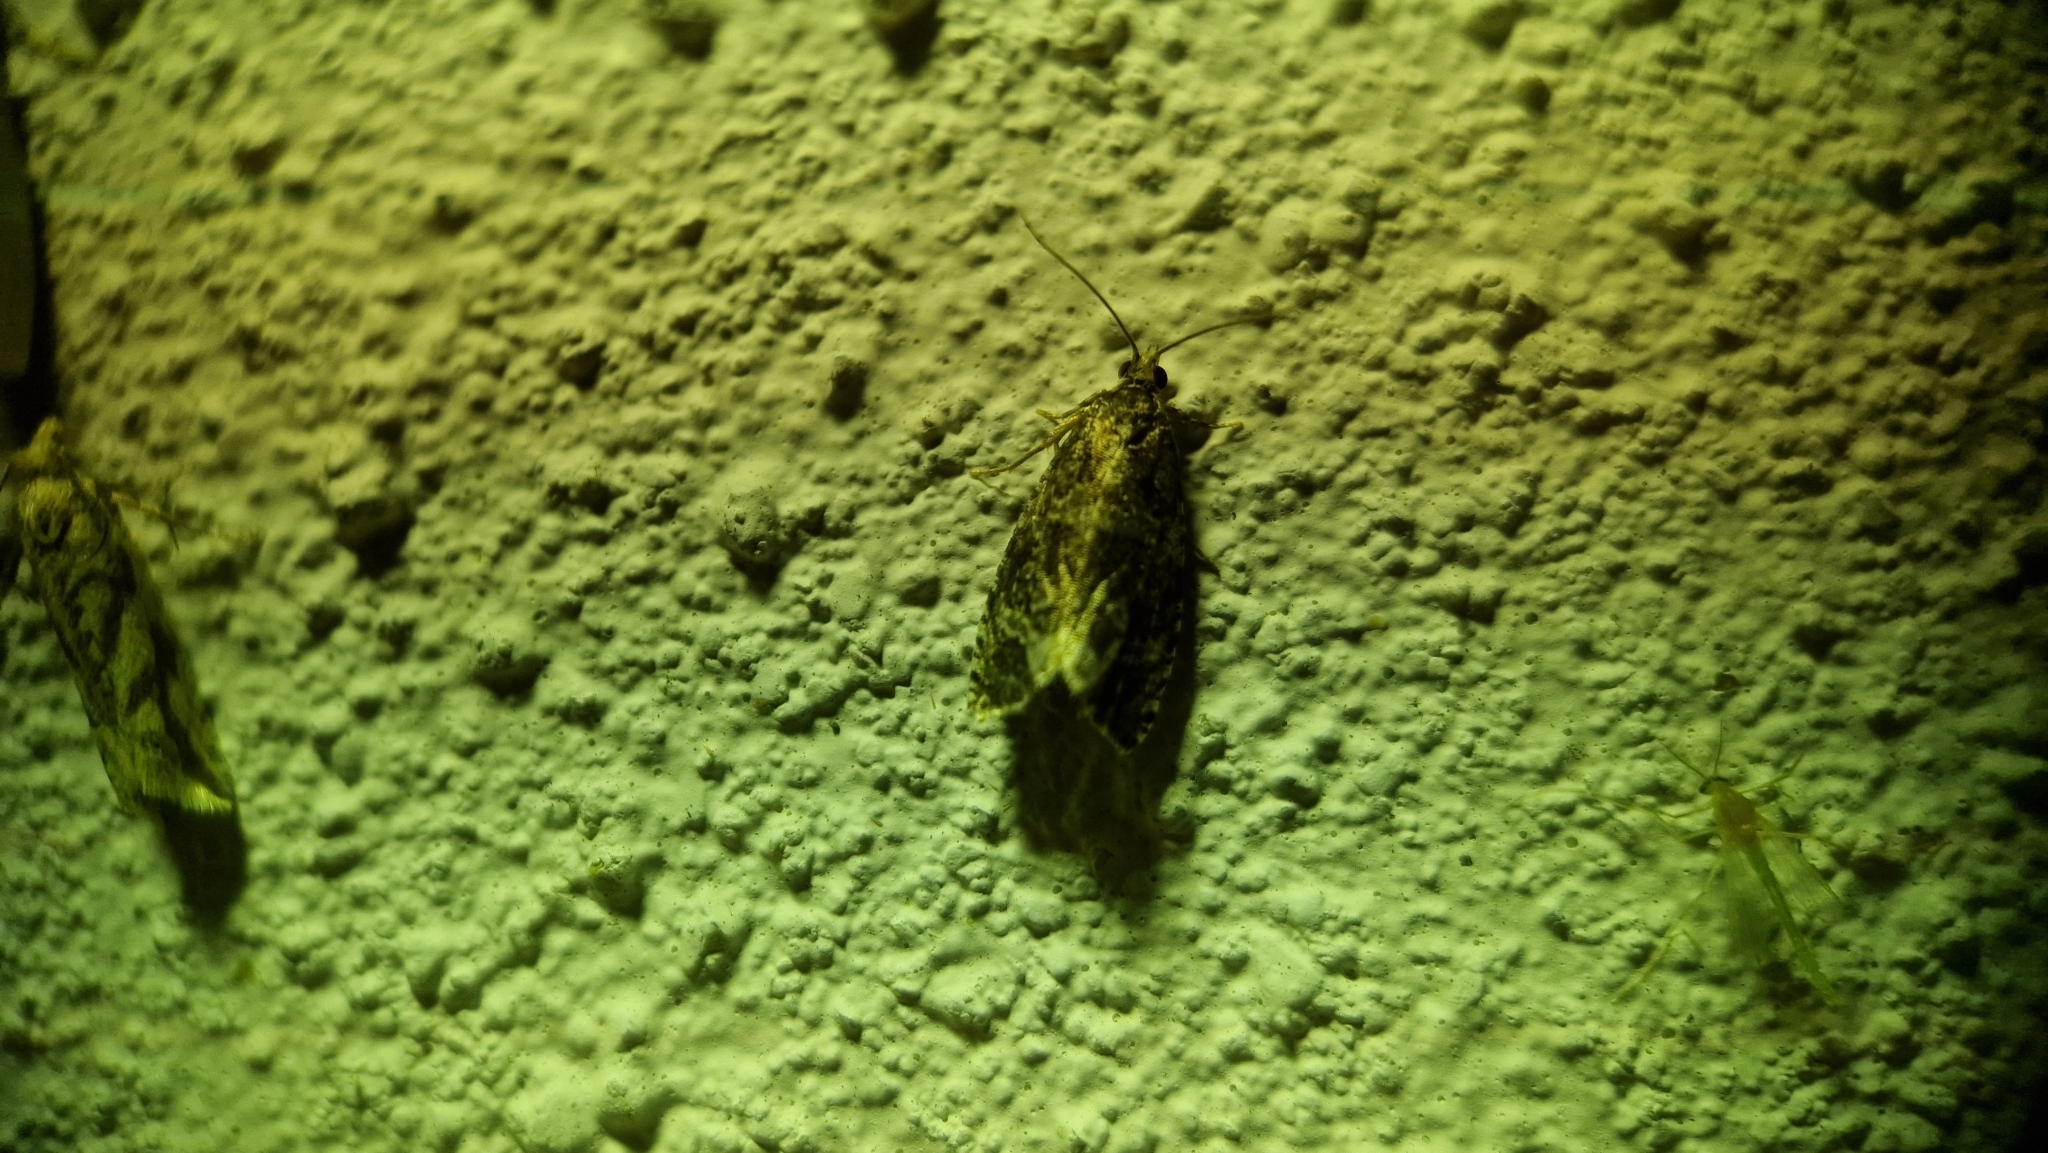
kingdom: Animalia
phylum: Arthropoda
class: Insecta
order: Lepidoptera
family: Noctuidae
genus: Deltote
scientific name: Deltote pygarga
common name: Marbled white spot
